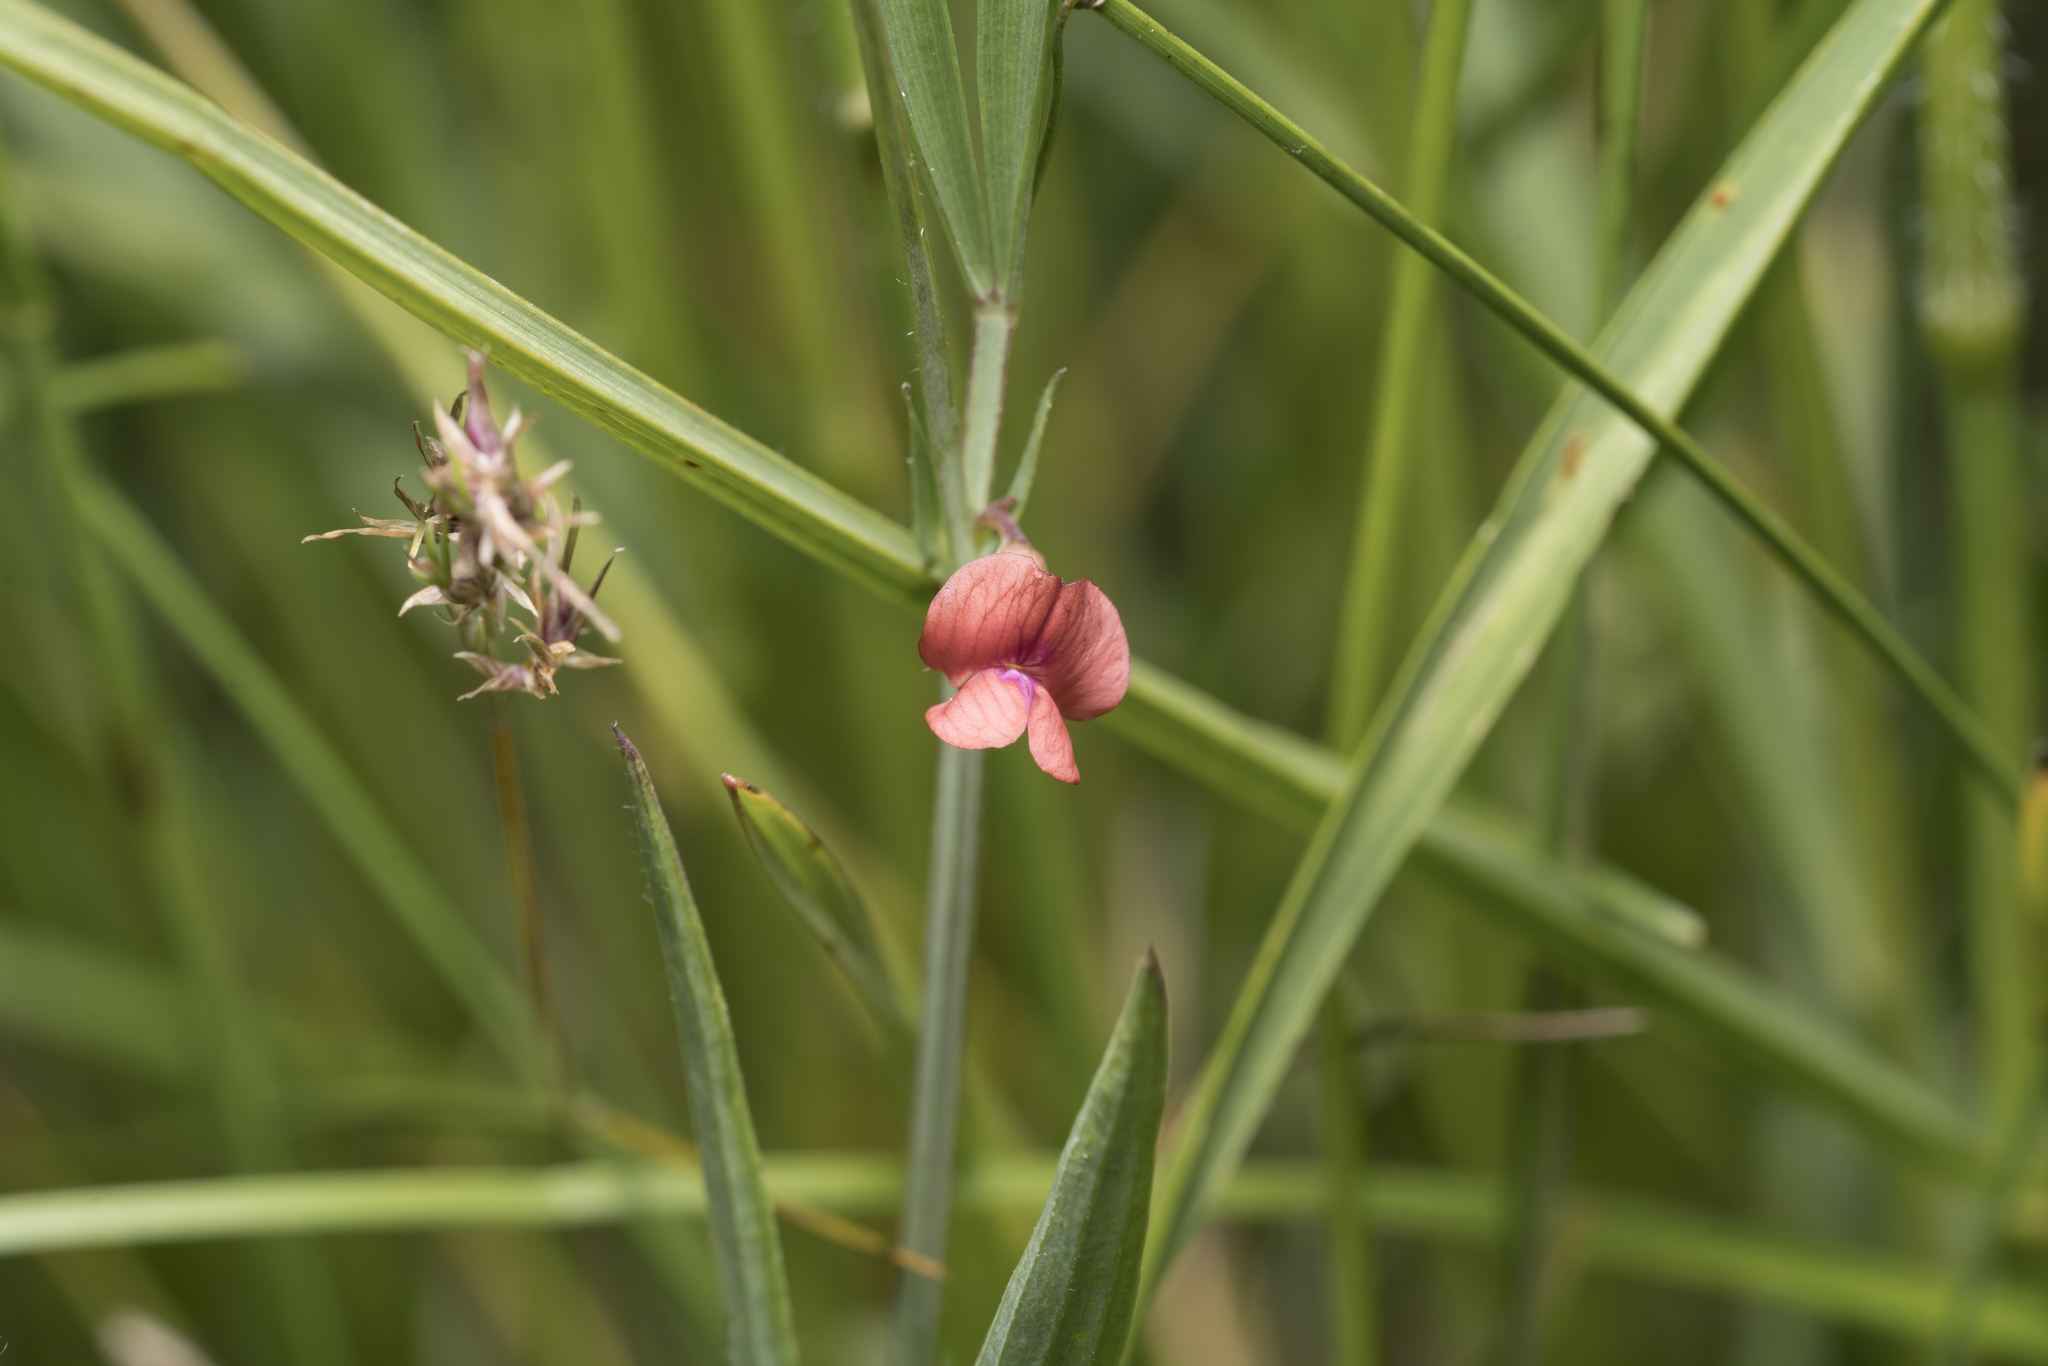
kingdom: Plantae
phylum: Tracheophyta
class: Magnoliopsida
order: Fabales
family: Fabaceae
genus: Lathyrus
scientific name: Lathyrus sphaericus
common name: Grass pea
